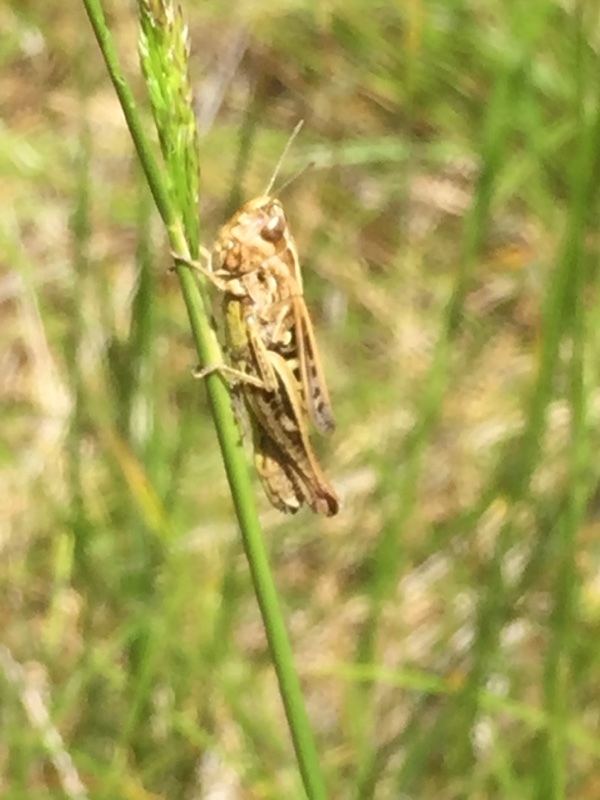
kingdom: Animalia
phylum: Arthropoda
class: Insecta
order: Orthoptera
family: Acrididae
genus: Stenobothrus
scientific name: Stenobothrus stigmaticus
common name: Lesser mottled grasshopper
